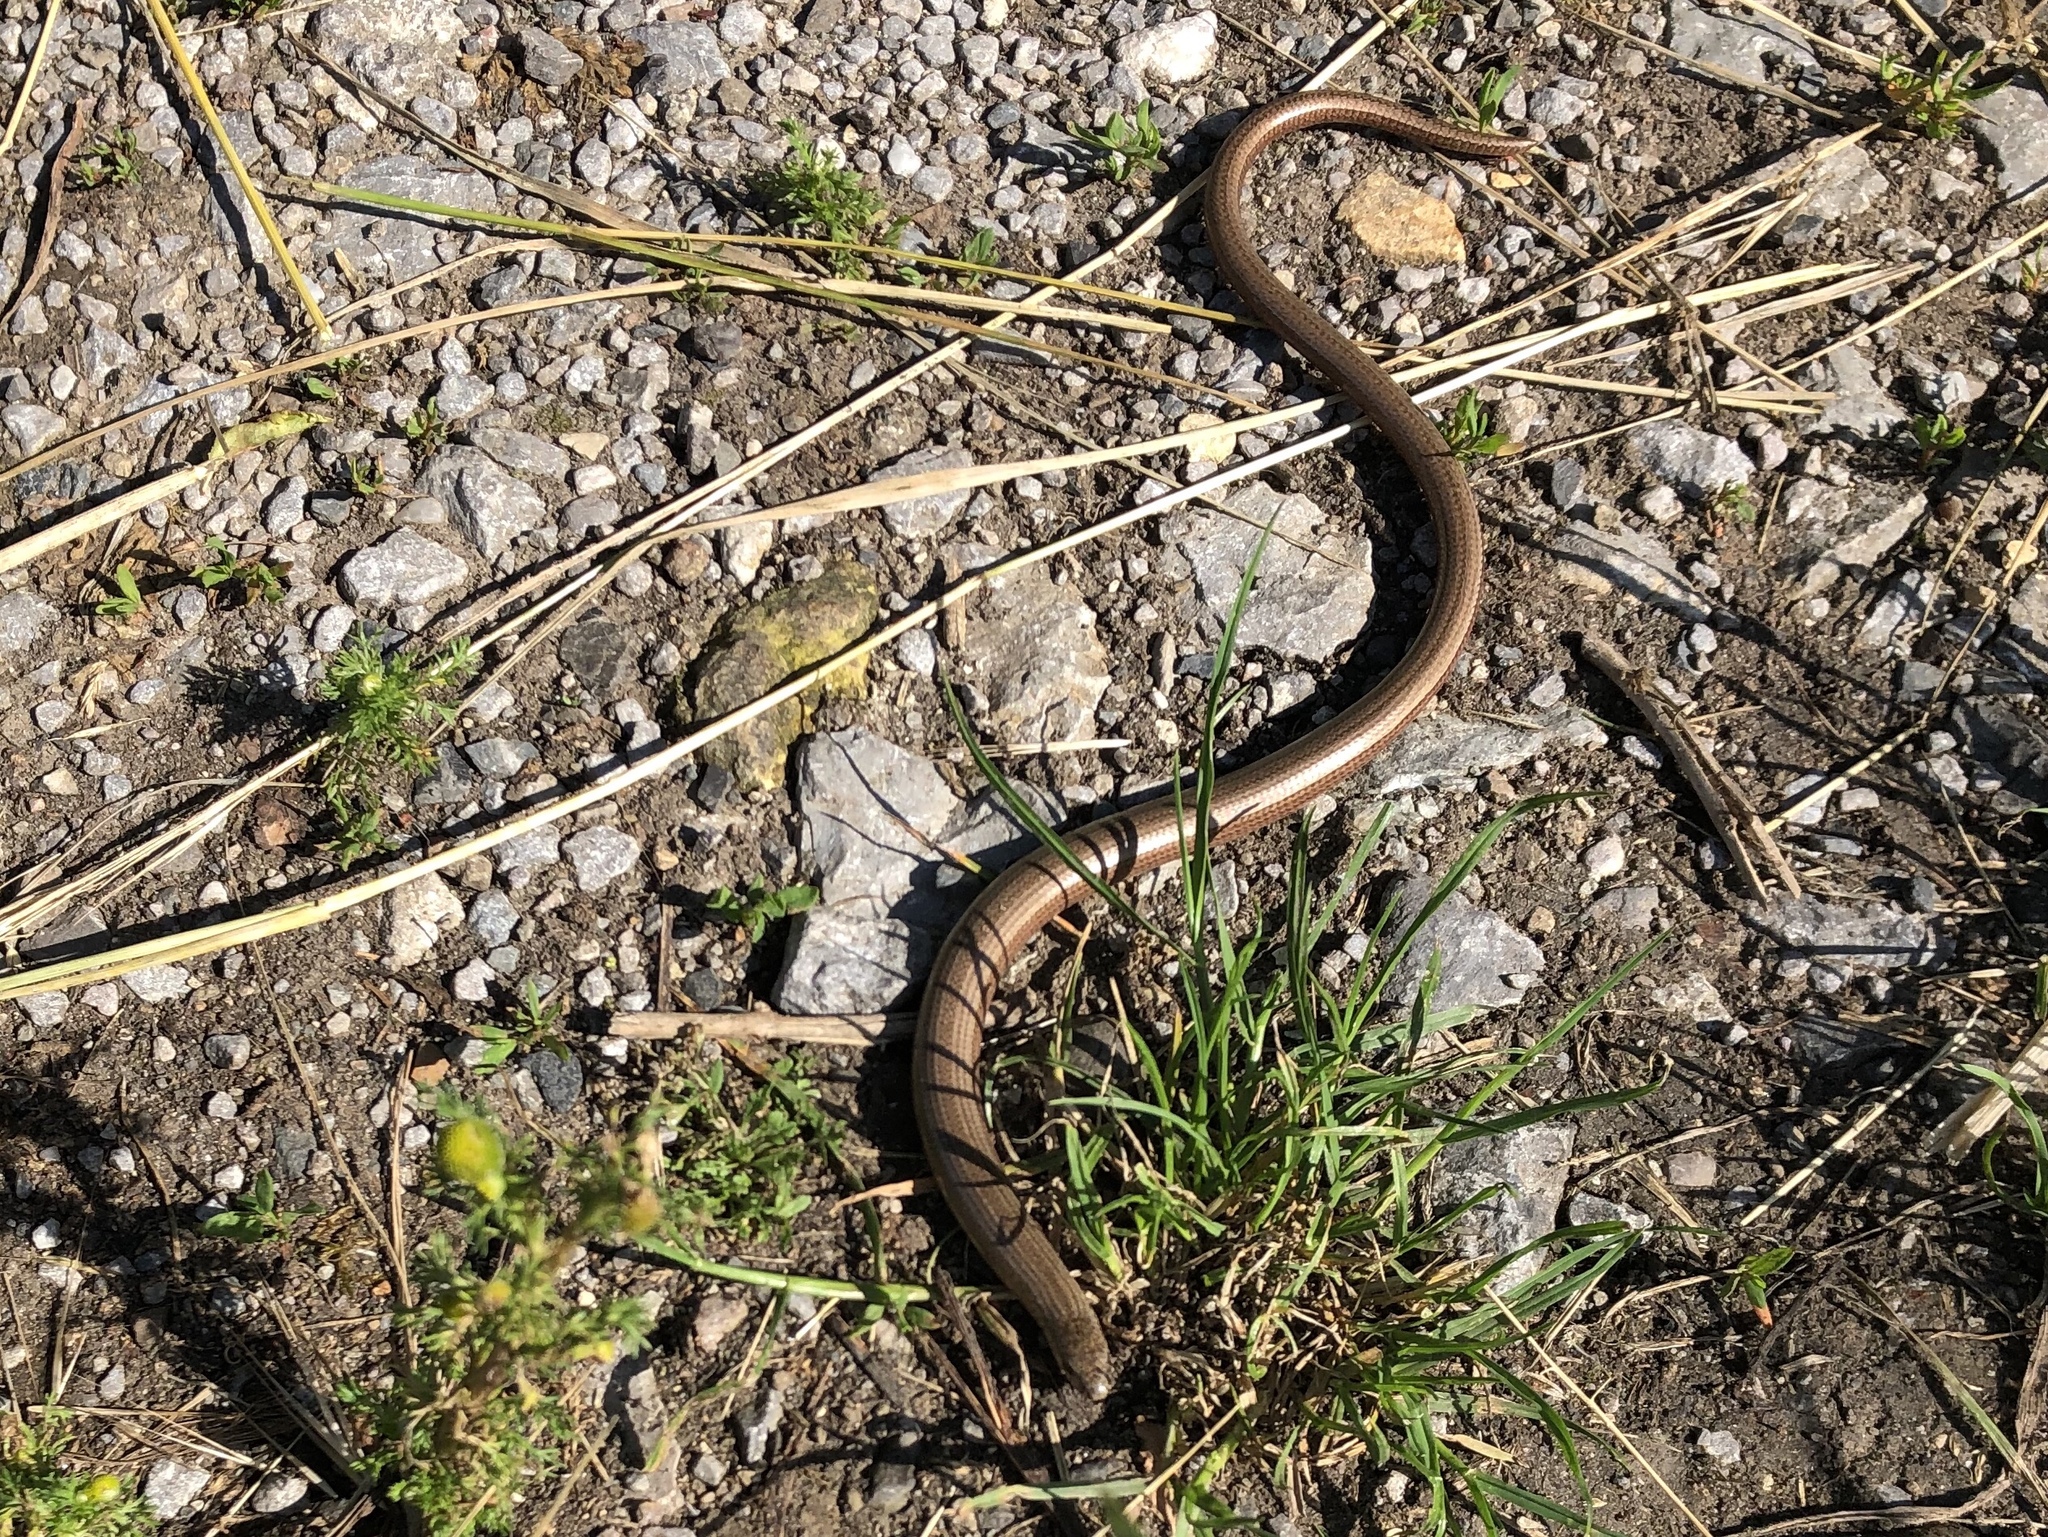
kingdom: Animalia
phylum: Chordata
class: Squamata
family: Anguidae
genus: Anguis
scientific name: Anguis fragilis
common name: Slow worm
